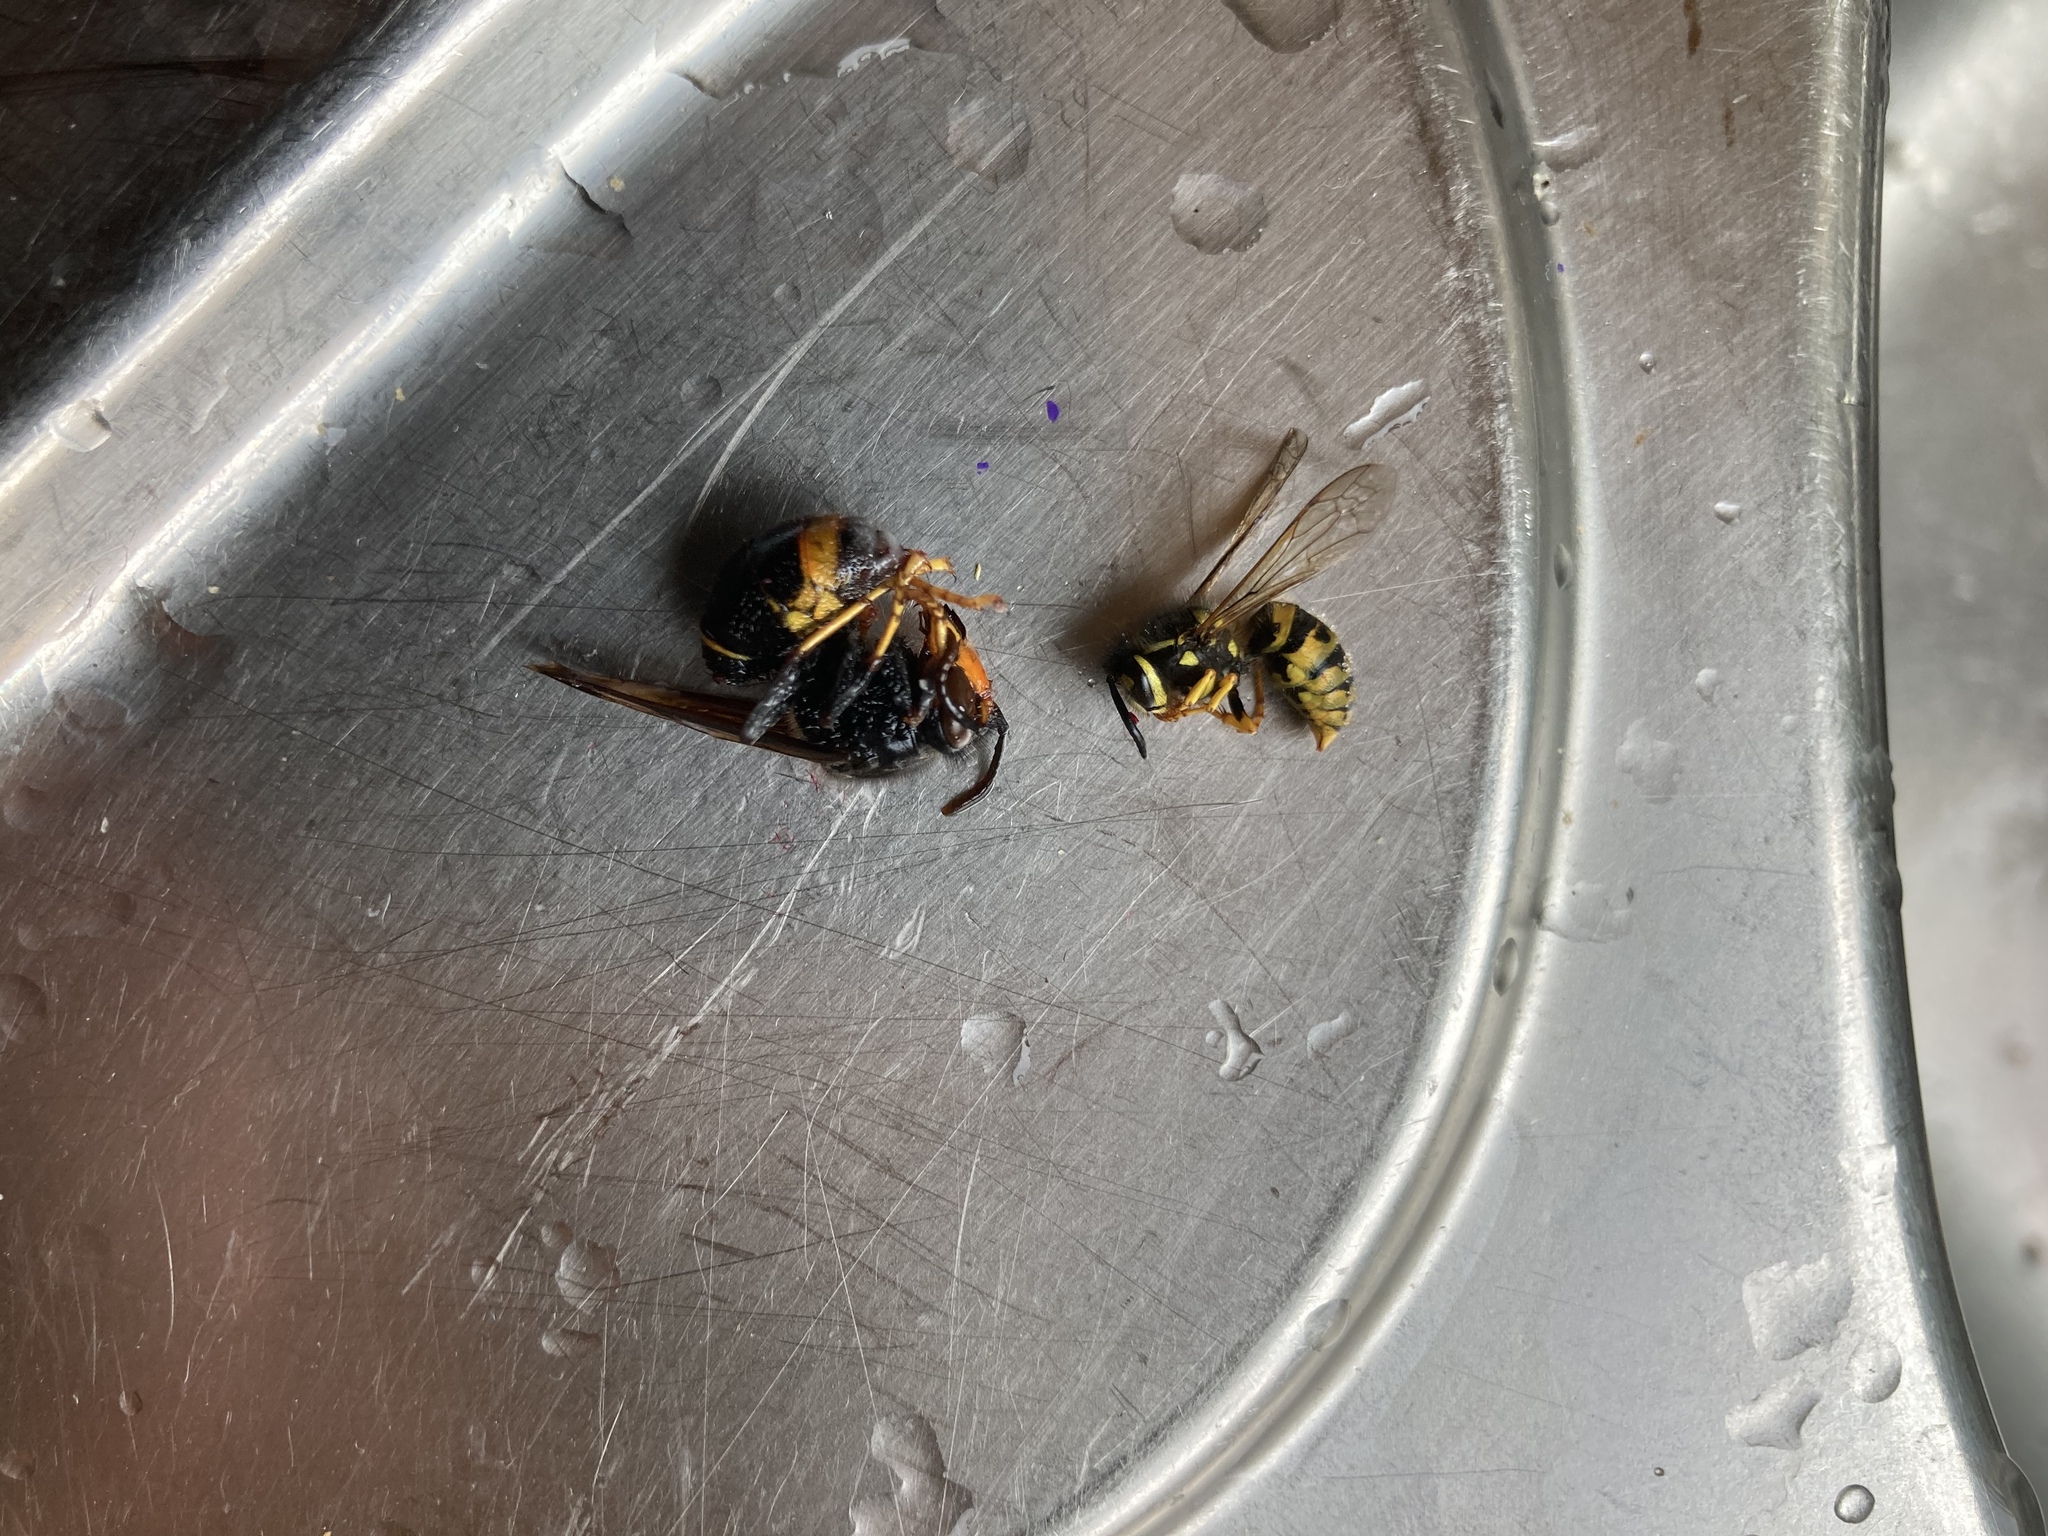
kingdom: Animalia
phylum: Arthropoda
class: Insecta
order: Hymenoptera
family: Vespidae
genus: Vespa
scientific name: Vespa velutina
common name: Asian hornet
